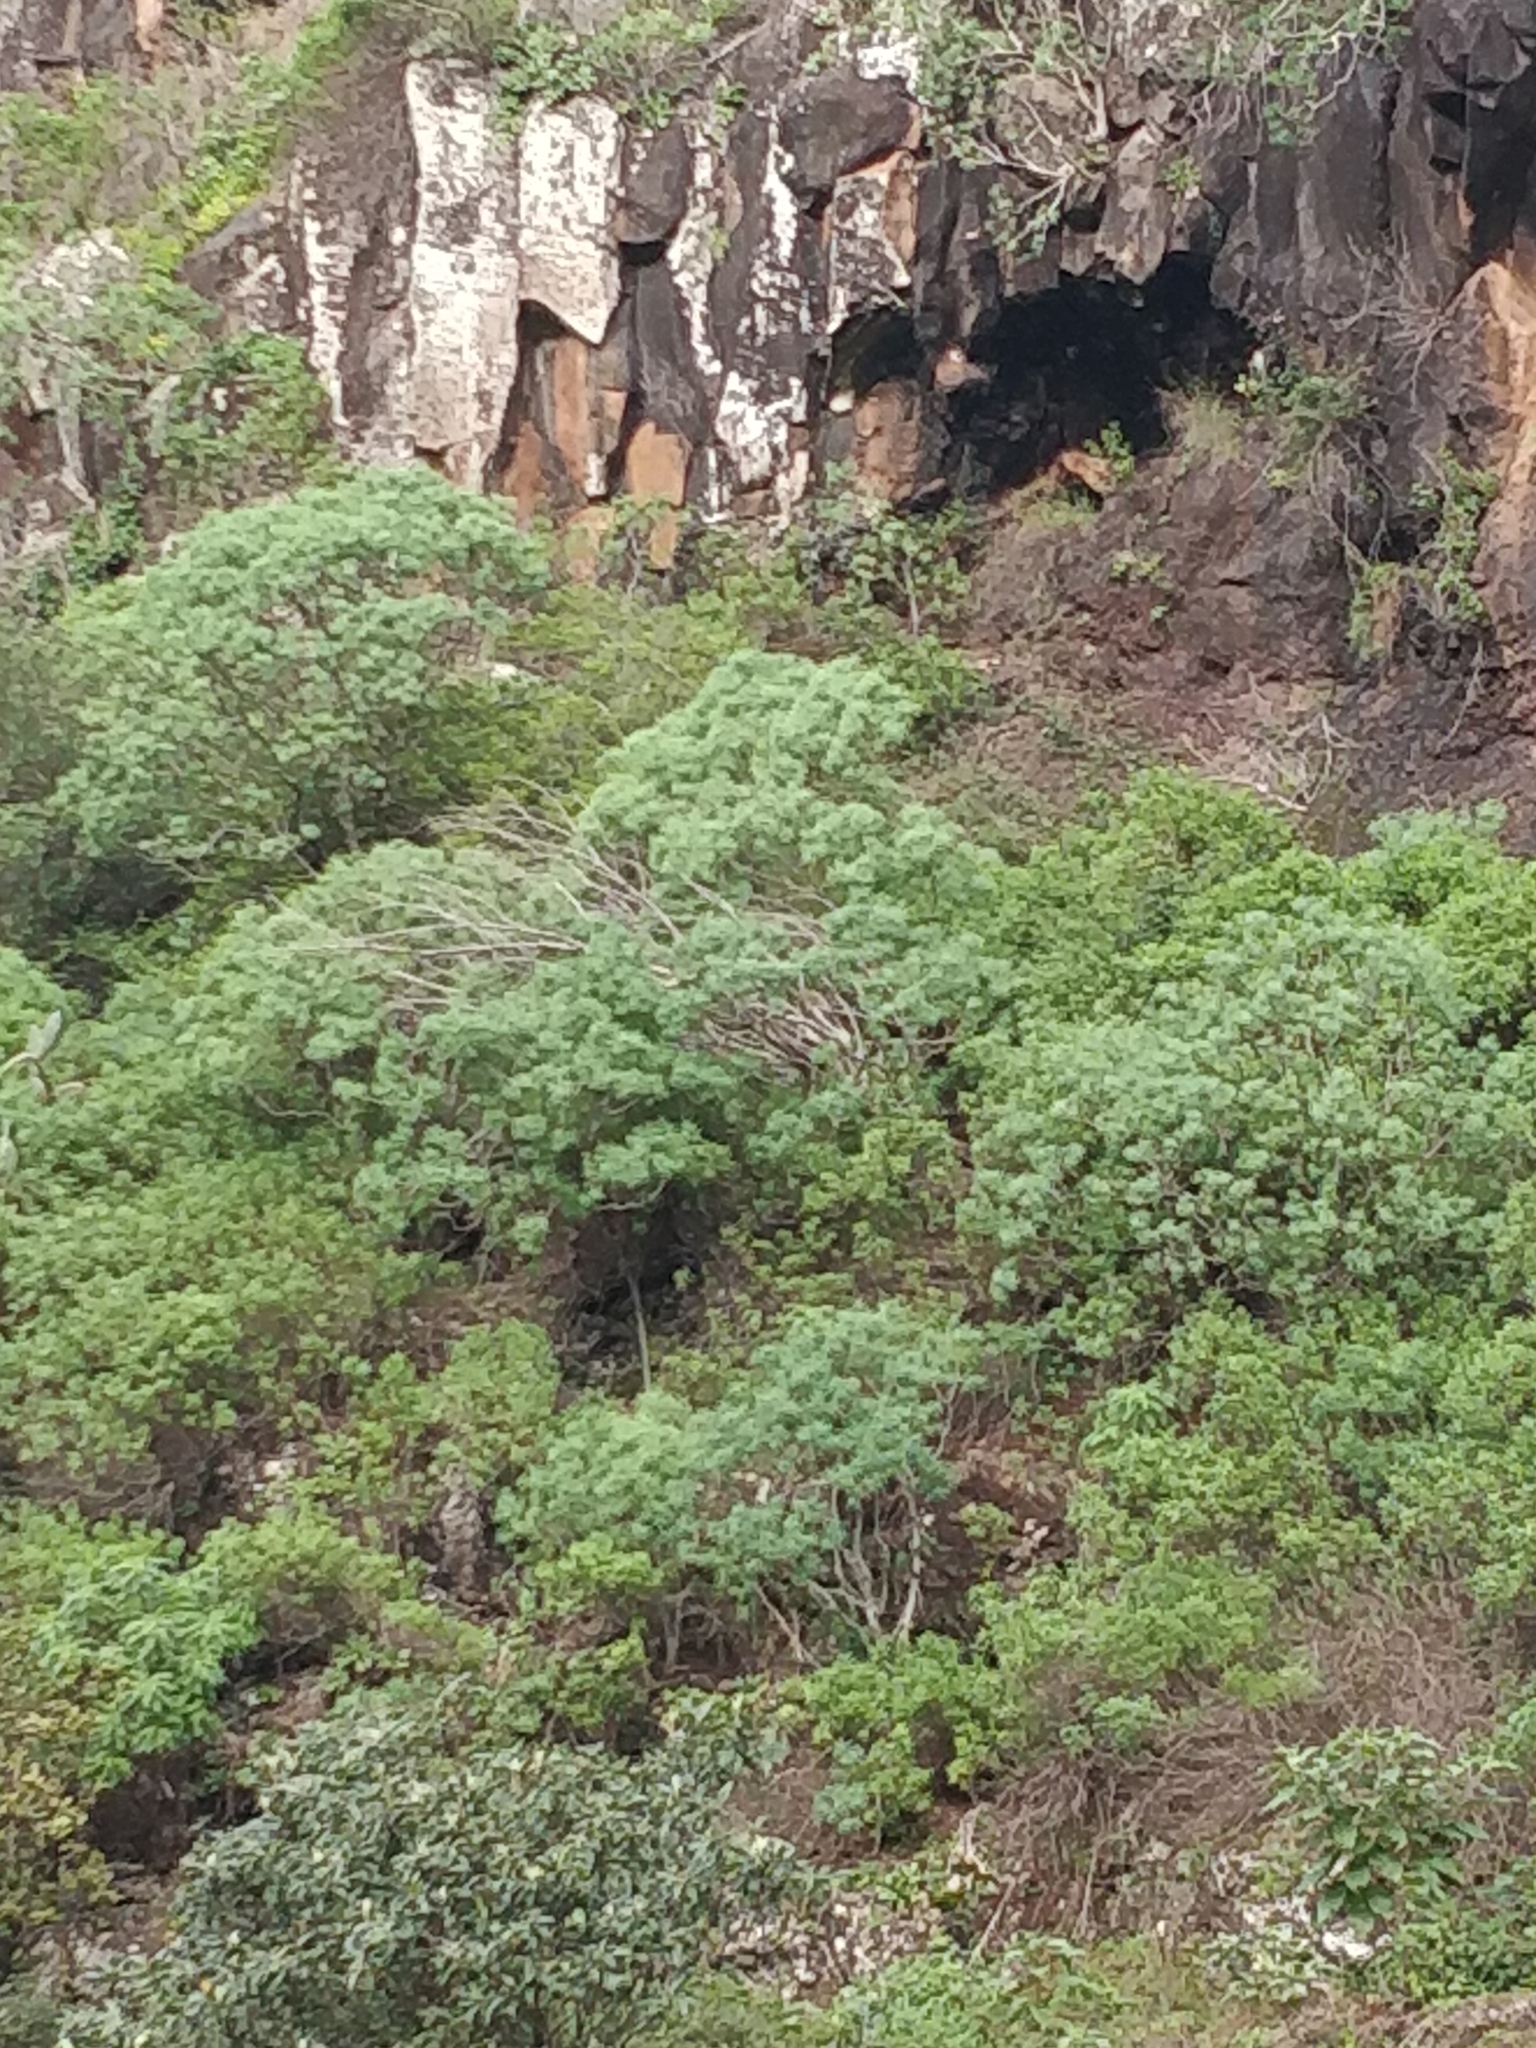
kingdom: Plantae
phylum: Tracheophyta
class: Magnoliopsida
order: Malpighiales
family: Euphorbiaceae
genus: Euphorbia
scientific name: Euphorbia piscatoria
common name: Fish-stunning spurge
